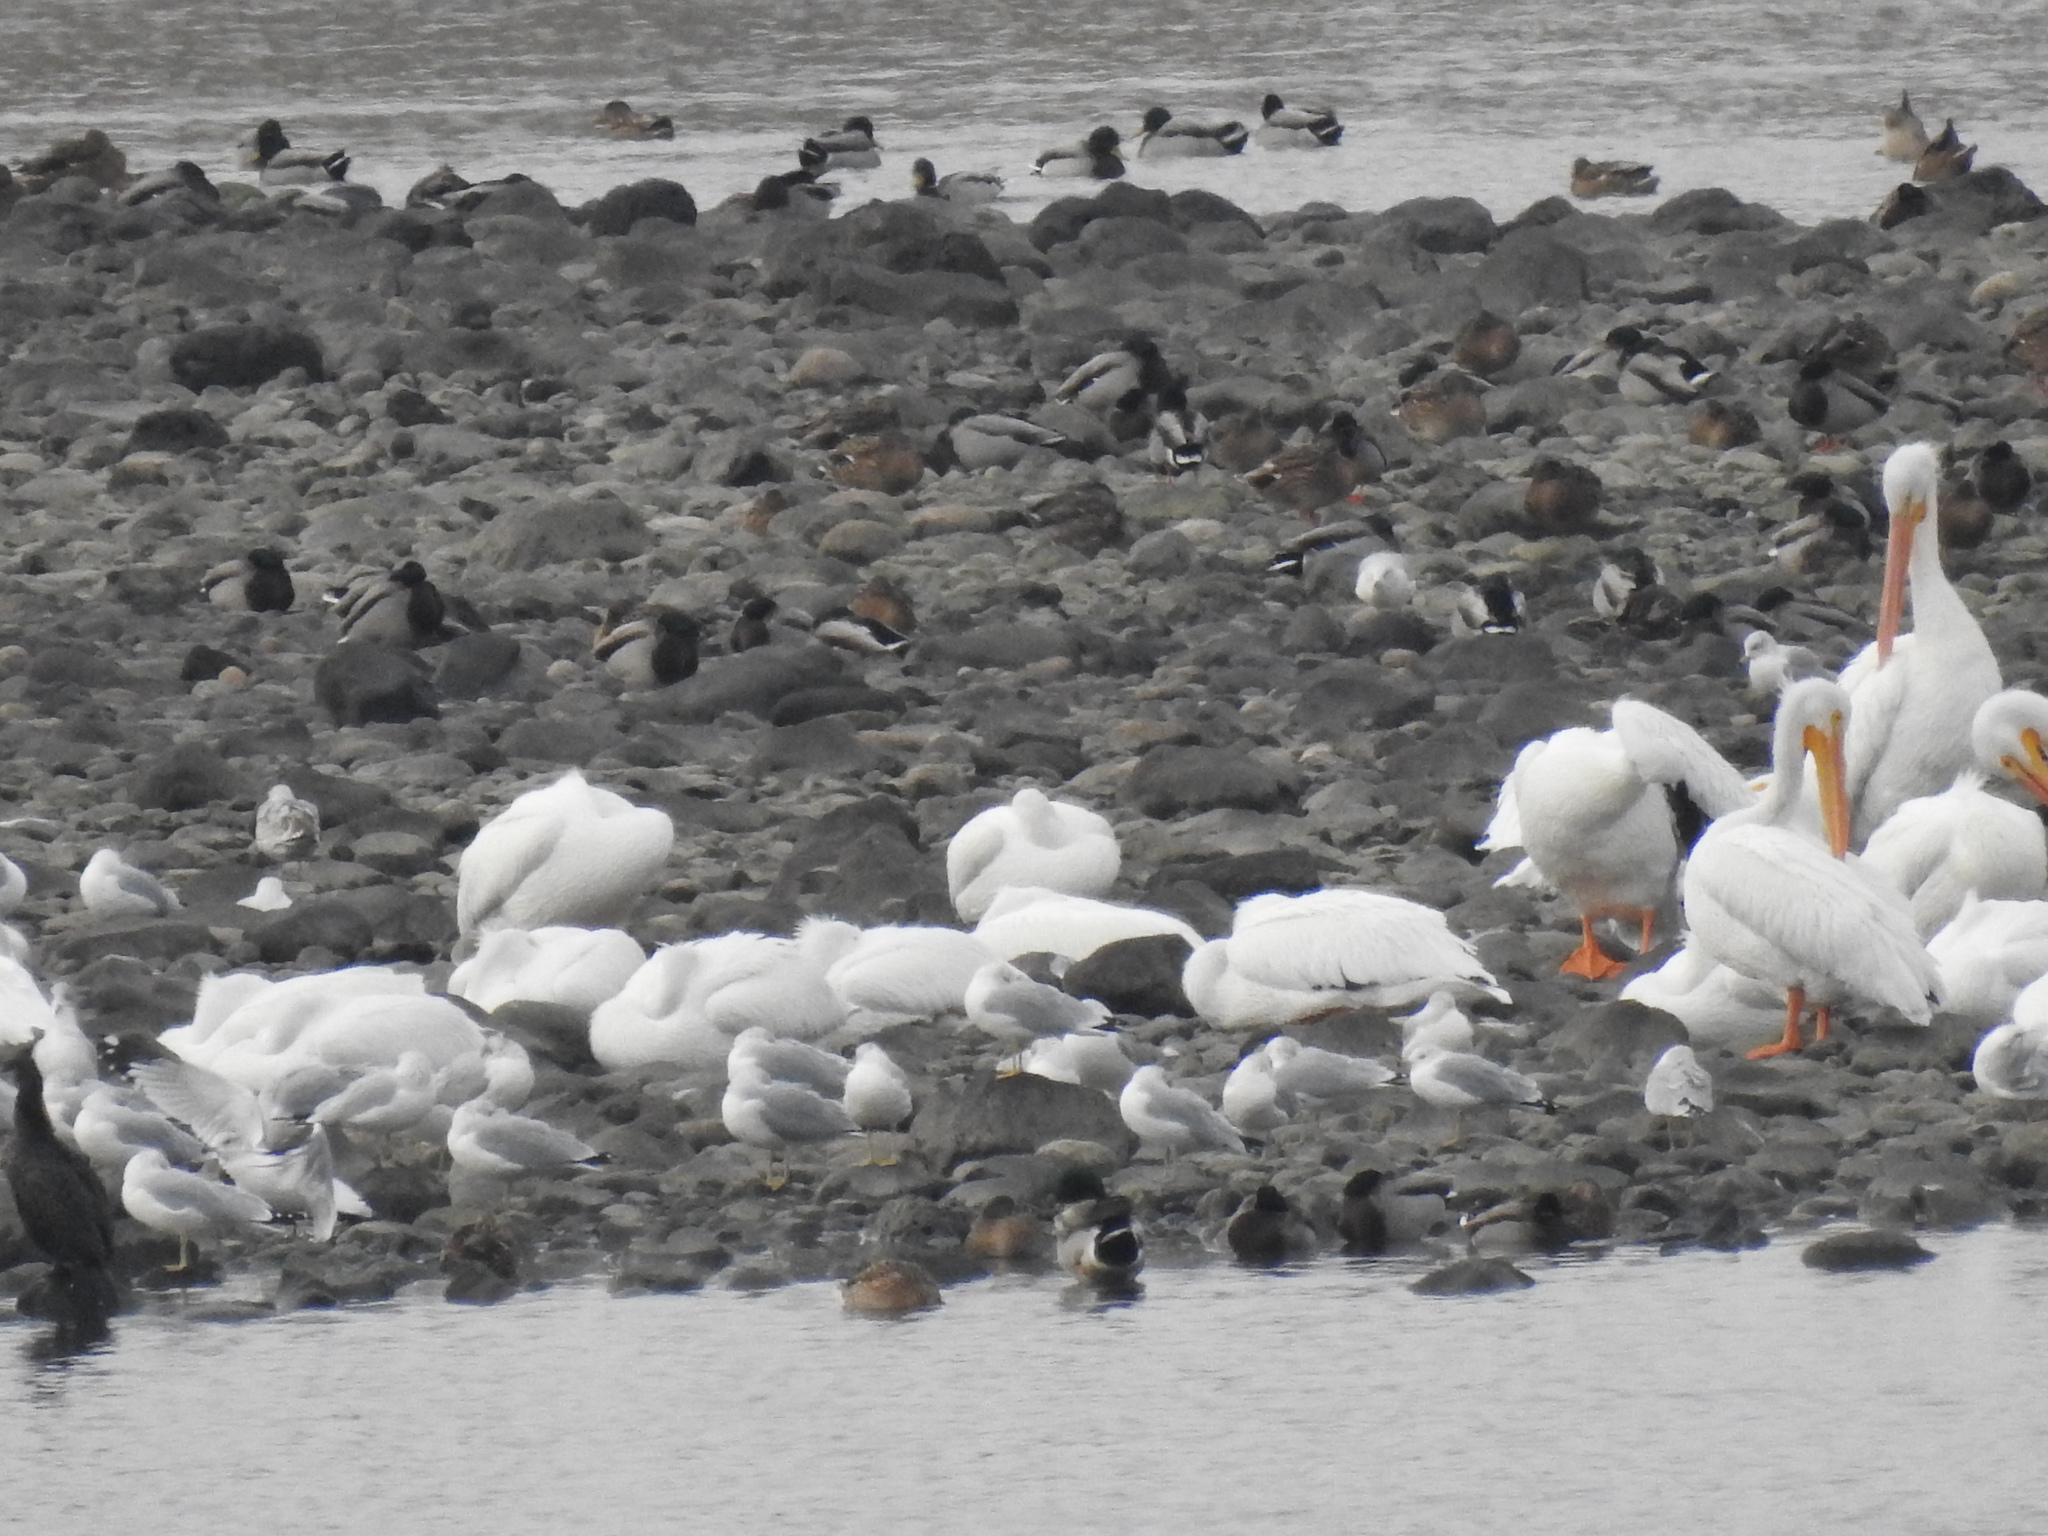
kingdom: Animalia
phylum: Chordata
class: Aves
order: Pelecaniformes
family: Pelecanidae
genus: Pelecanus
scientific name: Pelecanus erythrorhynchos
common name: American white pelican
